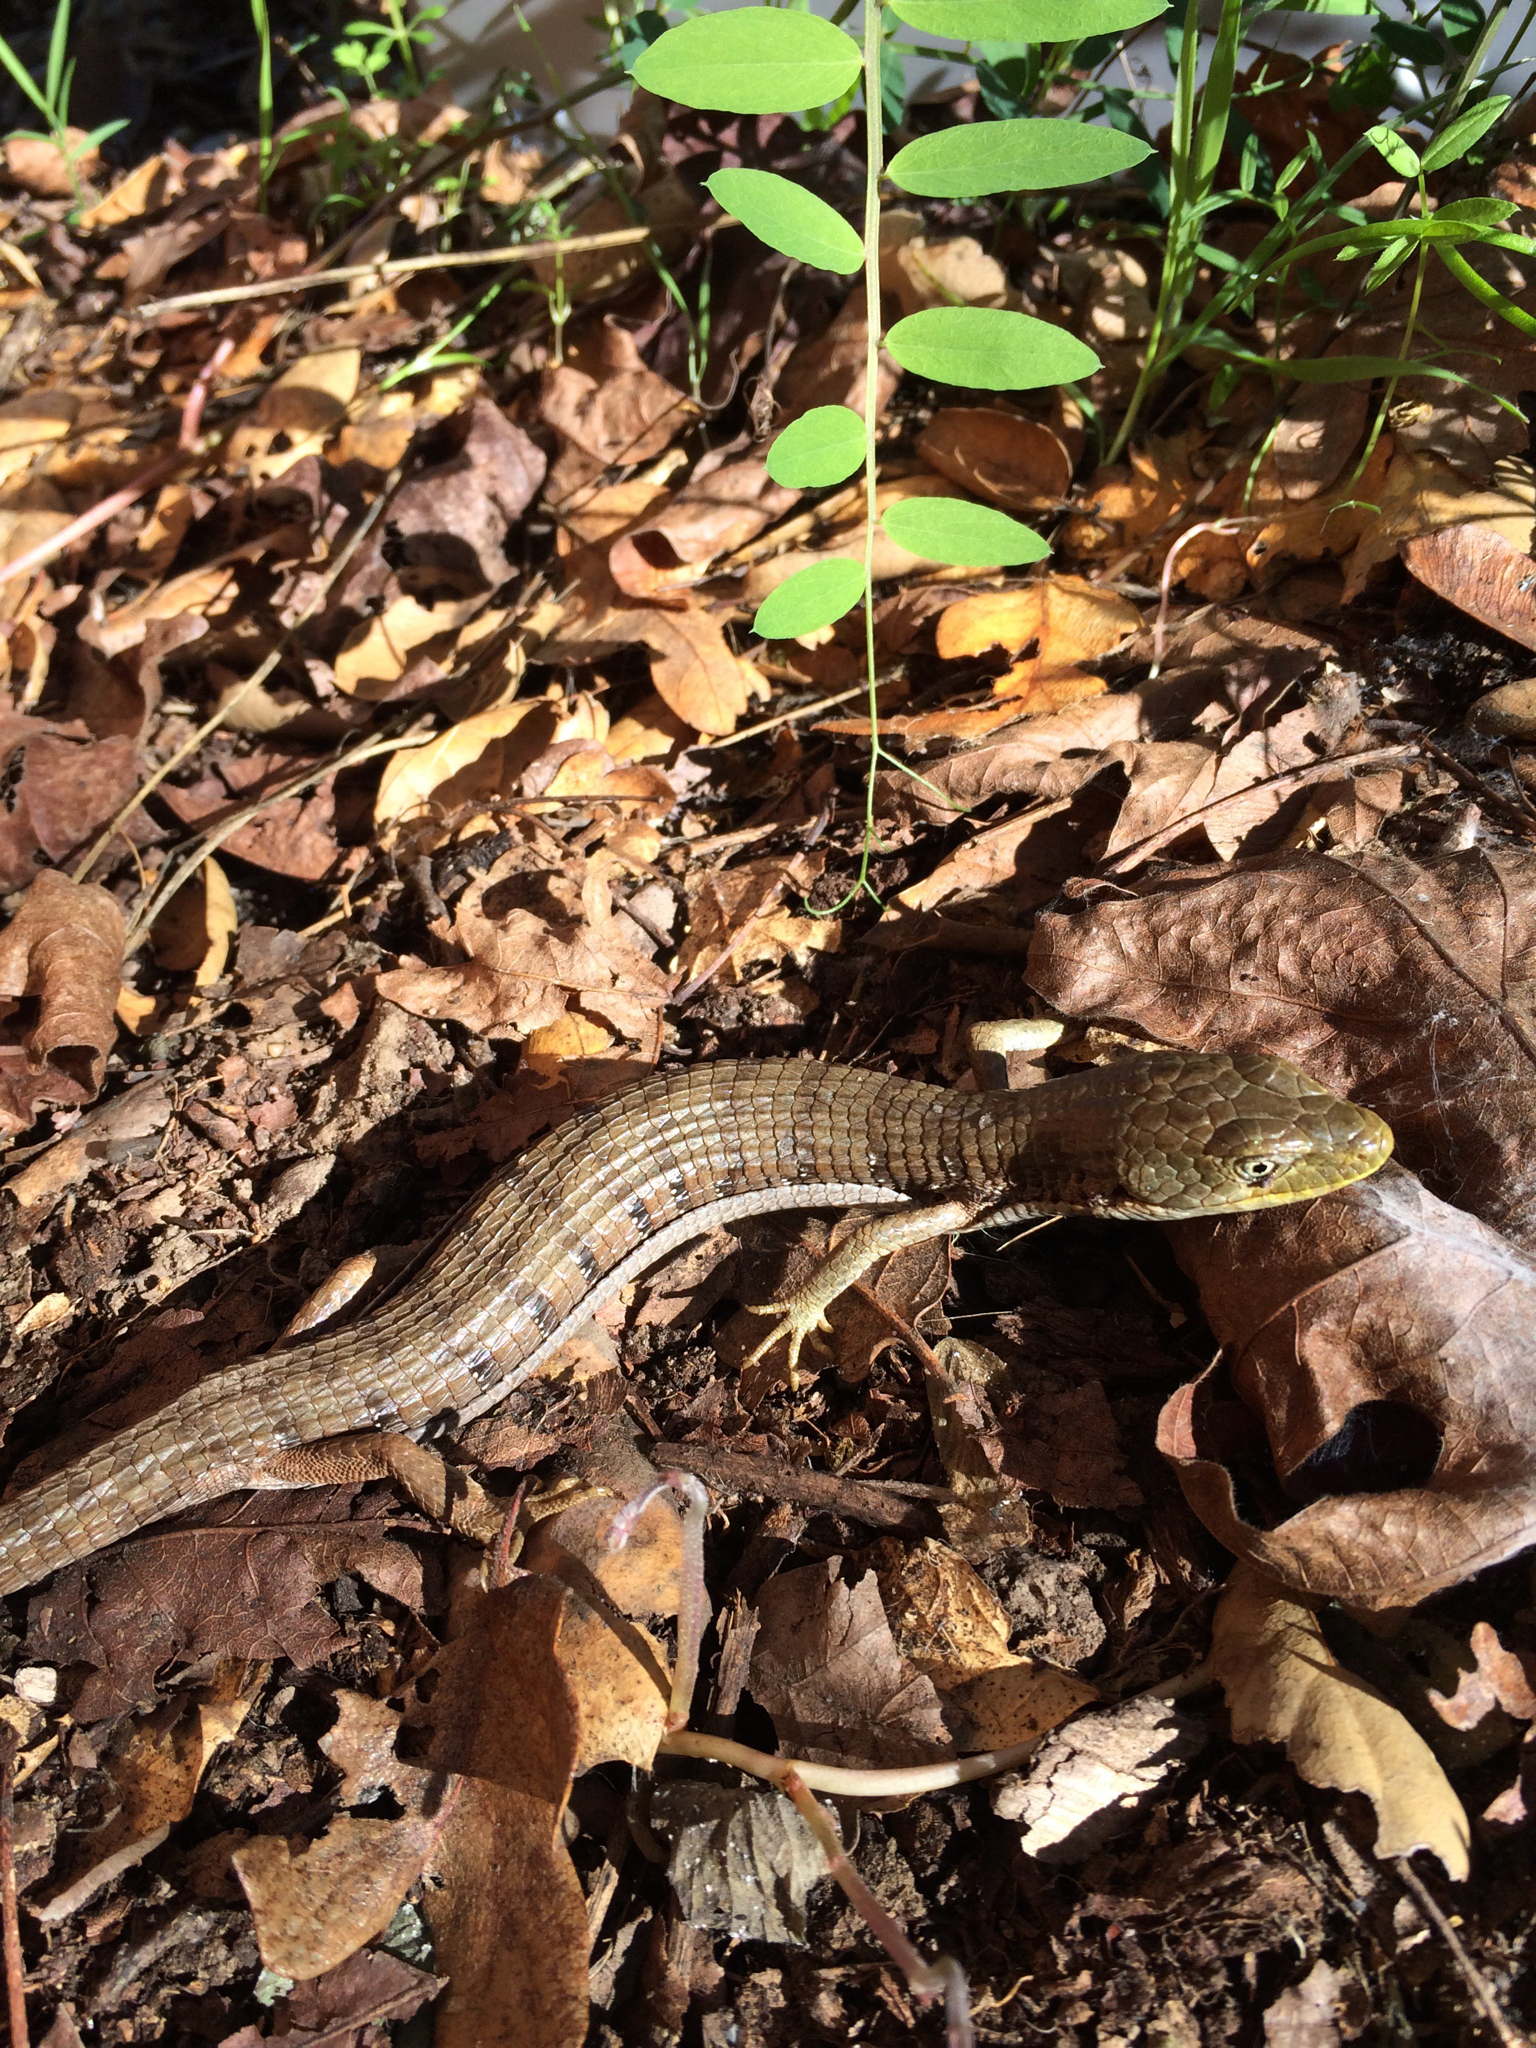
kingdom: Animalia
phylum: Chordata
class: Squamata
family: Anguidae
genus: Elgaria
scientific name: Elgaria multicarinata
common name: Southern alligator lizard
